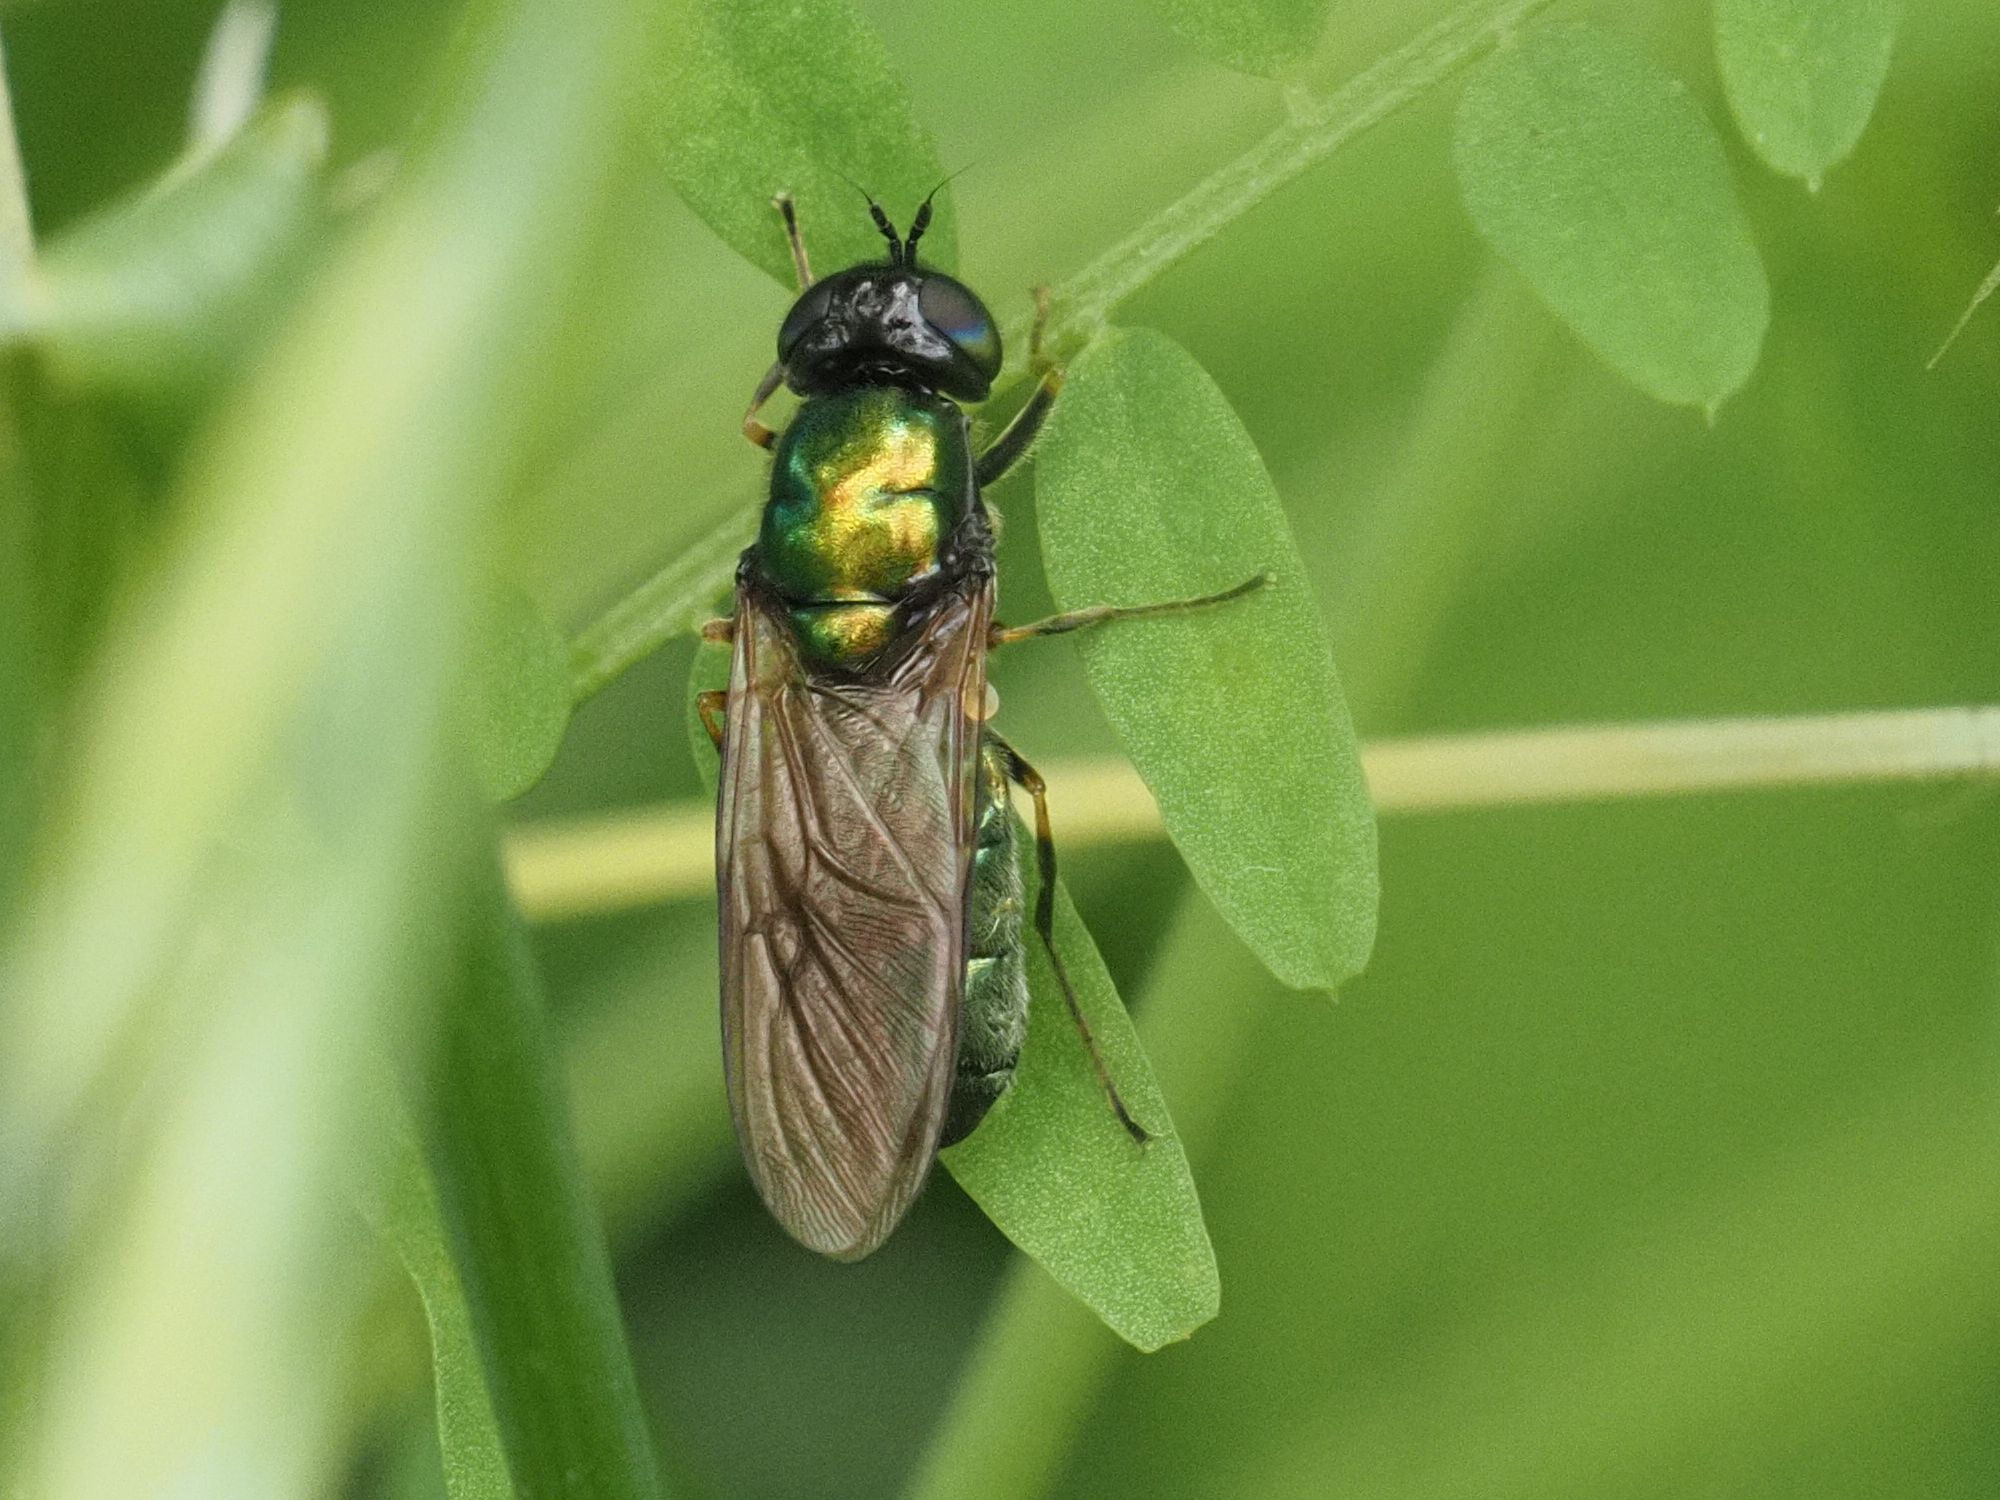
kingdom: Animalia
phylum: Arthropoda
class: Insecta
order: Diptera
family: Stratiomyidae
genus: Chloromyia
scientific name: Chloromyia formosa
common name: Soldier fly
